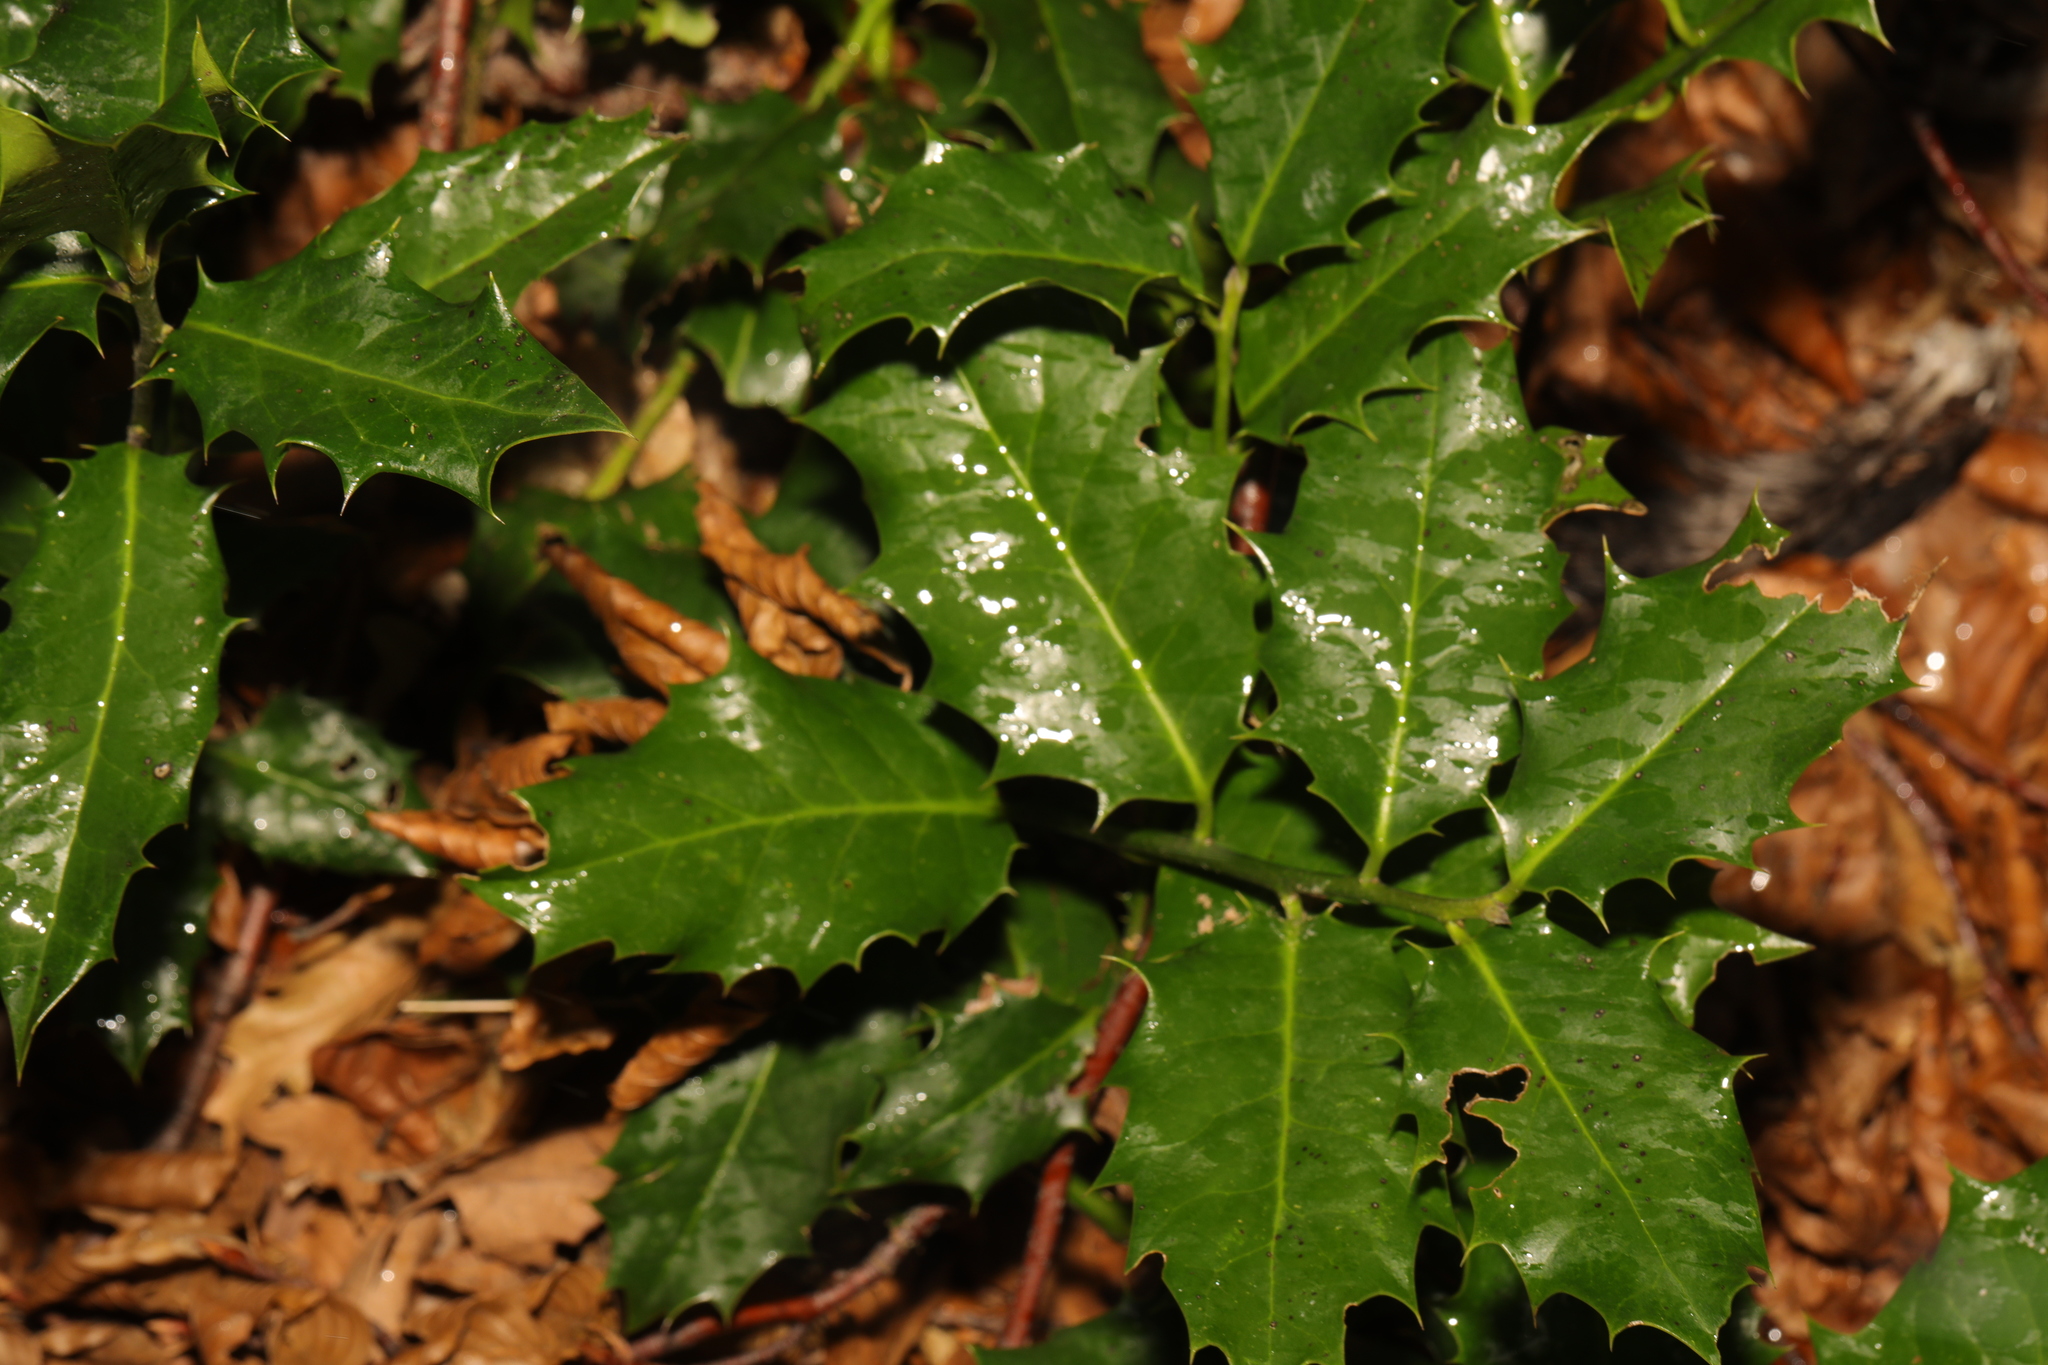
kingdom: Plantae
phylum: Tracheophyta
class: Magnoliopsida
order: Aquifoliales
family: Aquifoliaceae
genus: Ilex
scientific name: Ilex aquifolium
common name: English holly
